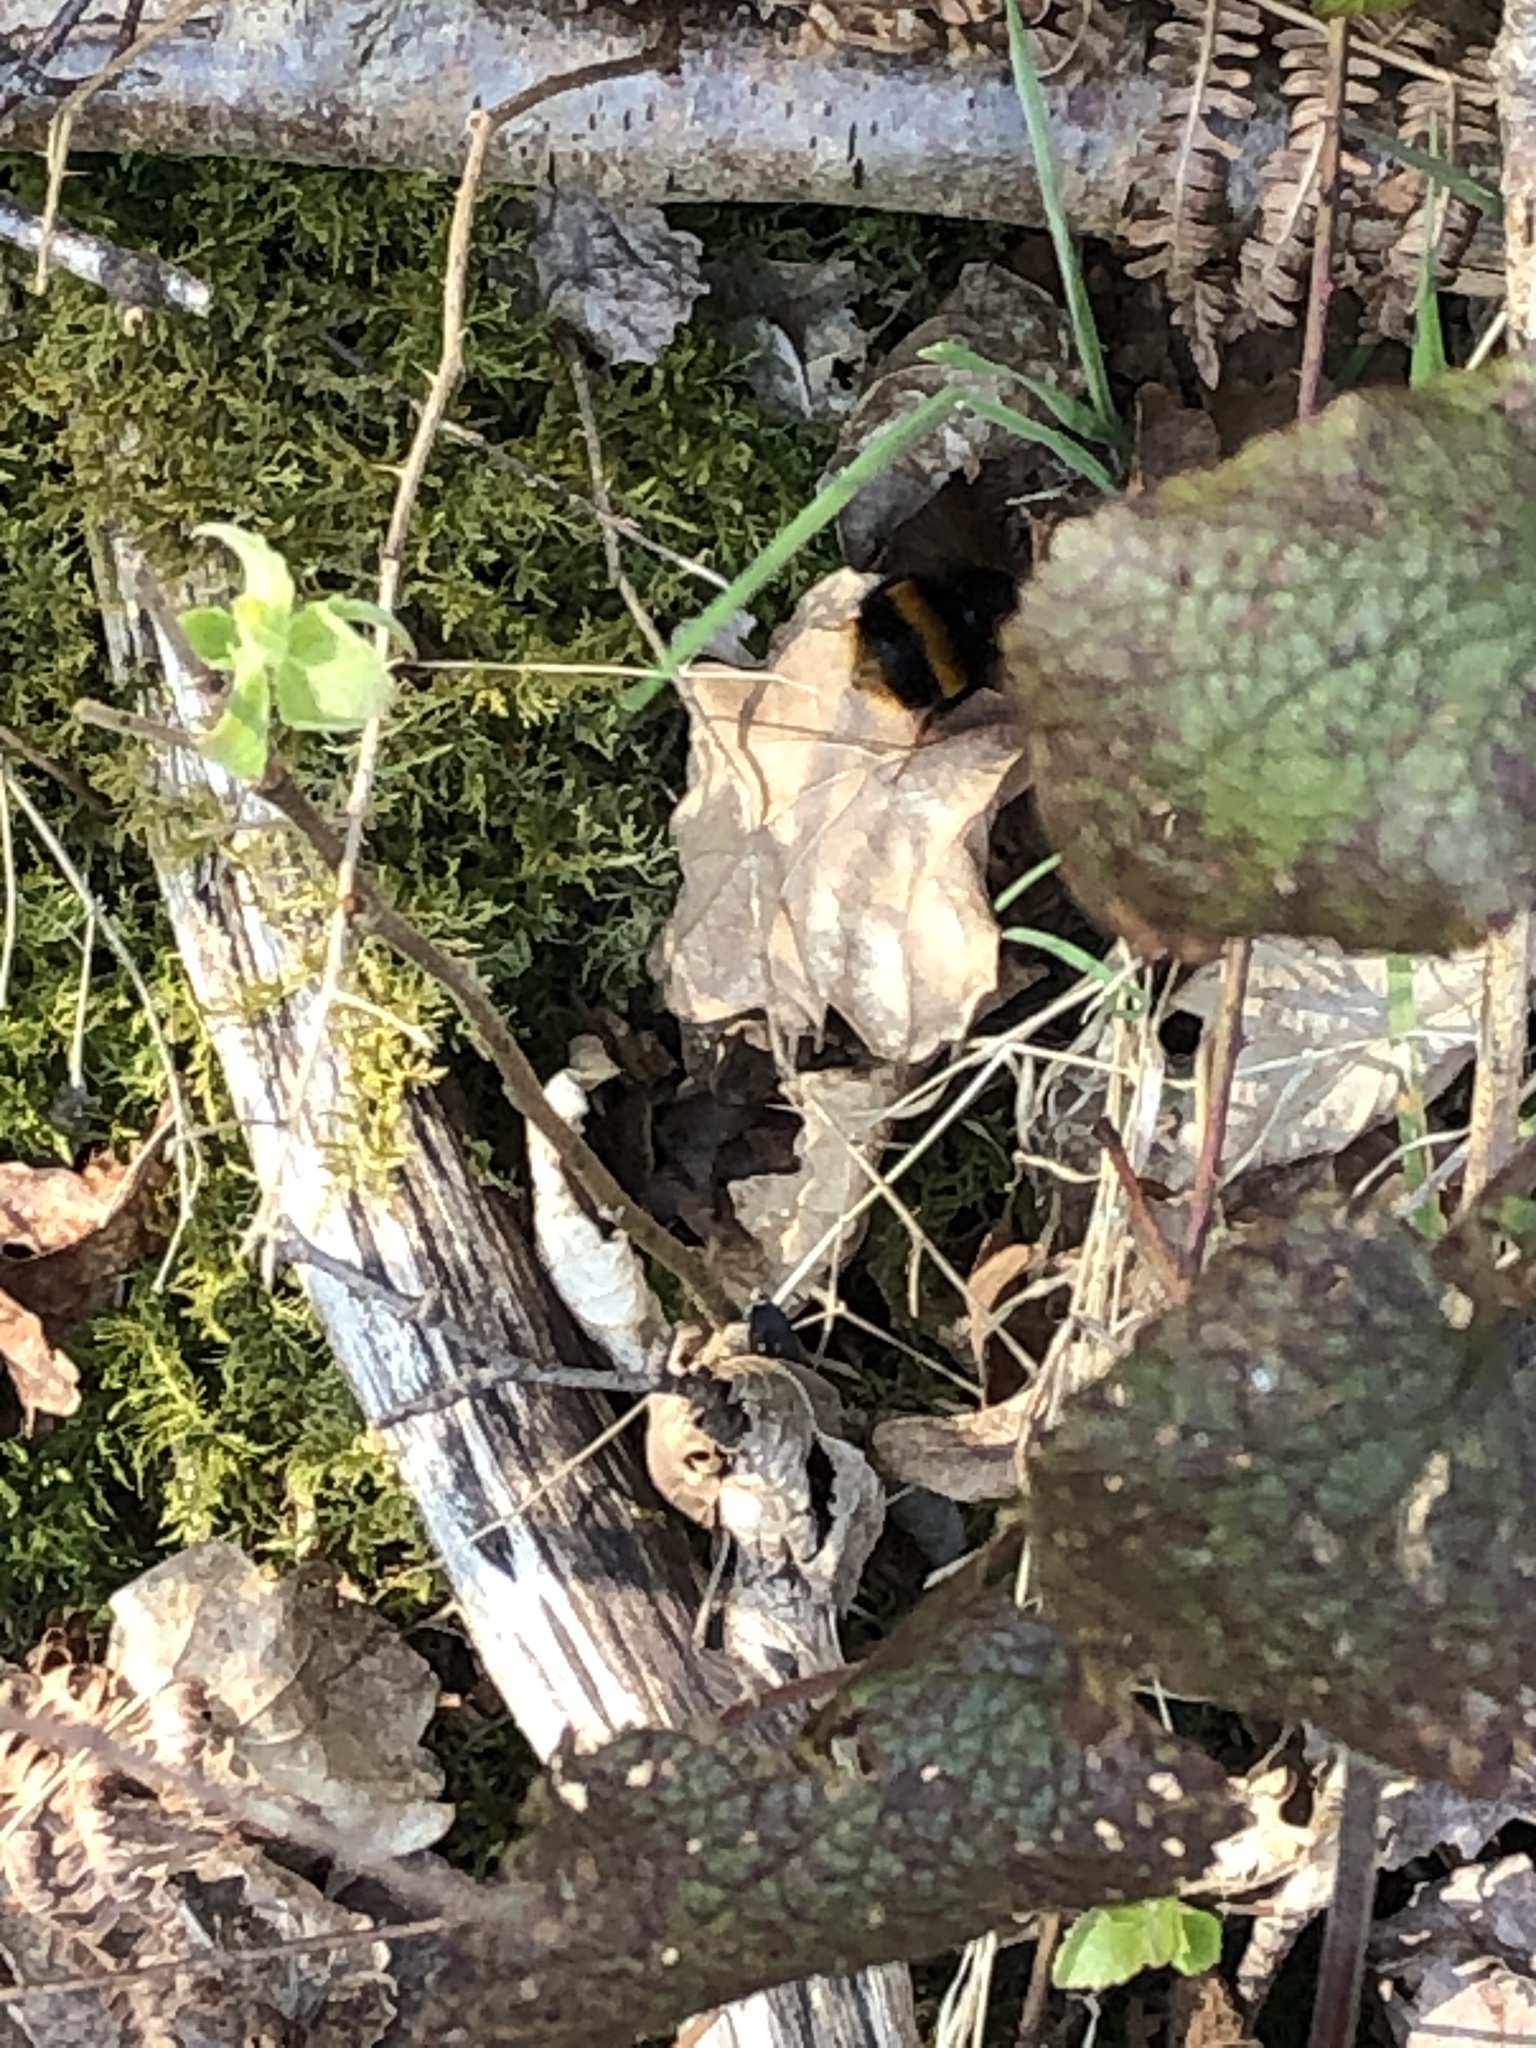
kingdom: Animalia
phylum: Arthropoda
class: Insecta
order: Hymenoptera
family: Apidae
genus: Bombus
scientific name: Bombus terrestris
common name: Buff-tailed bumblebee
